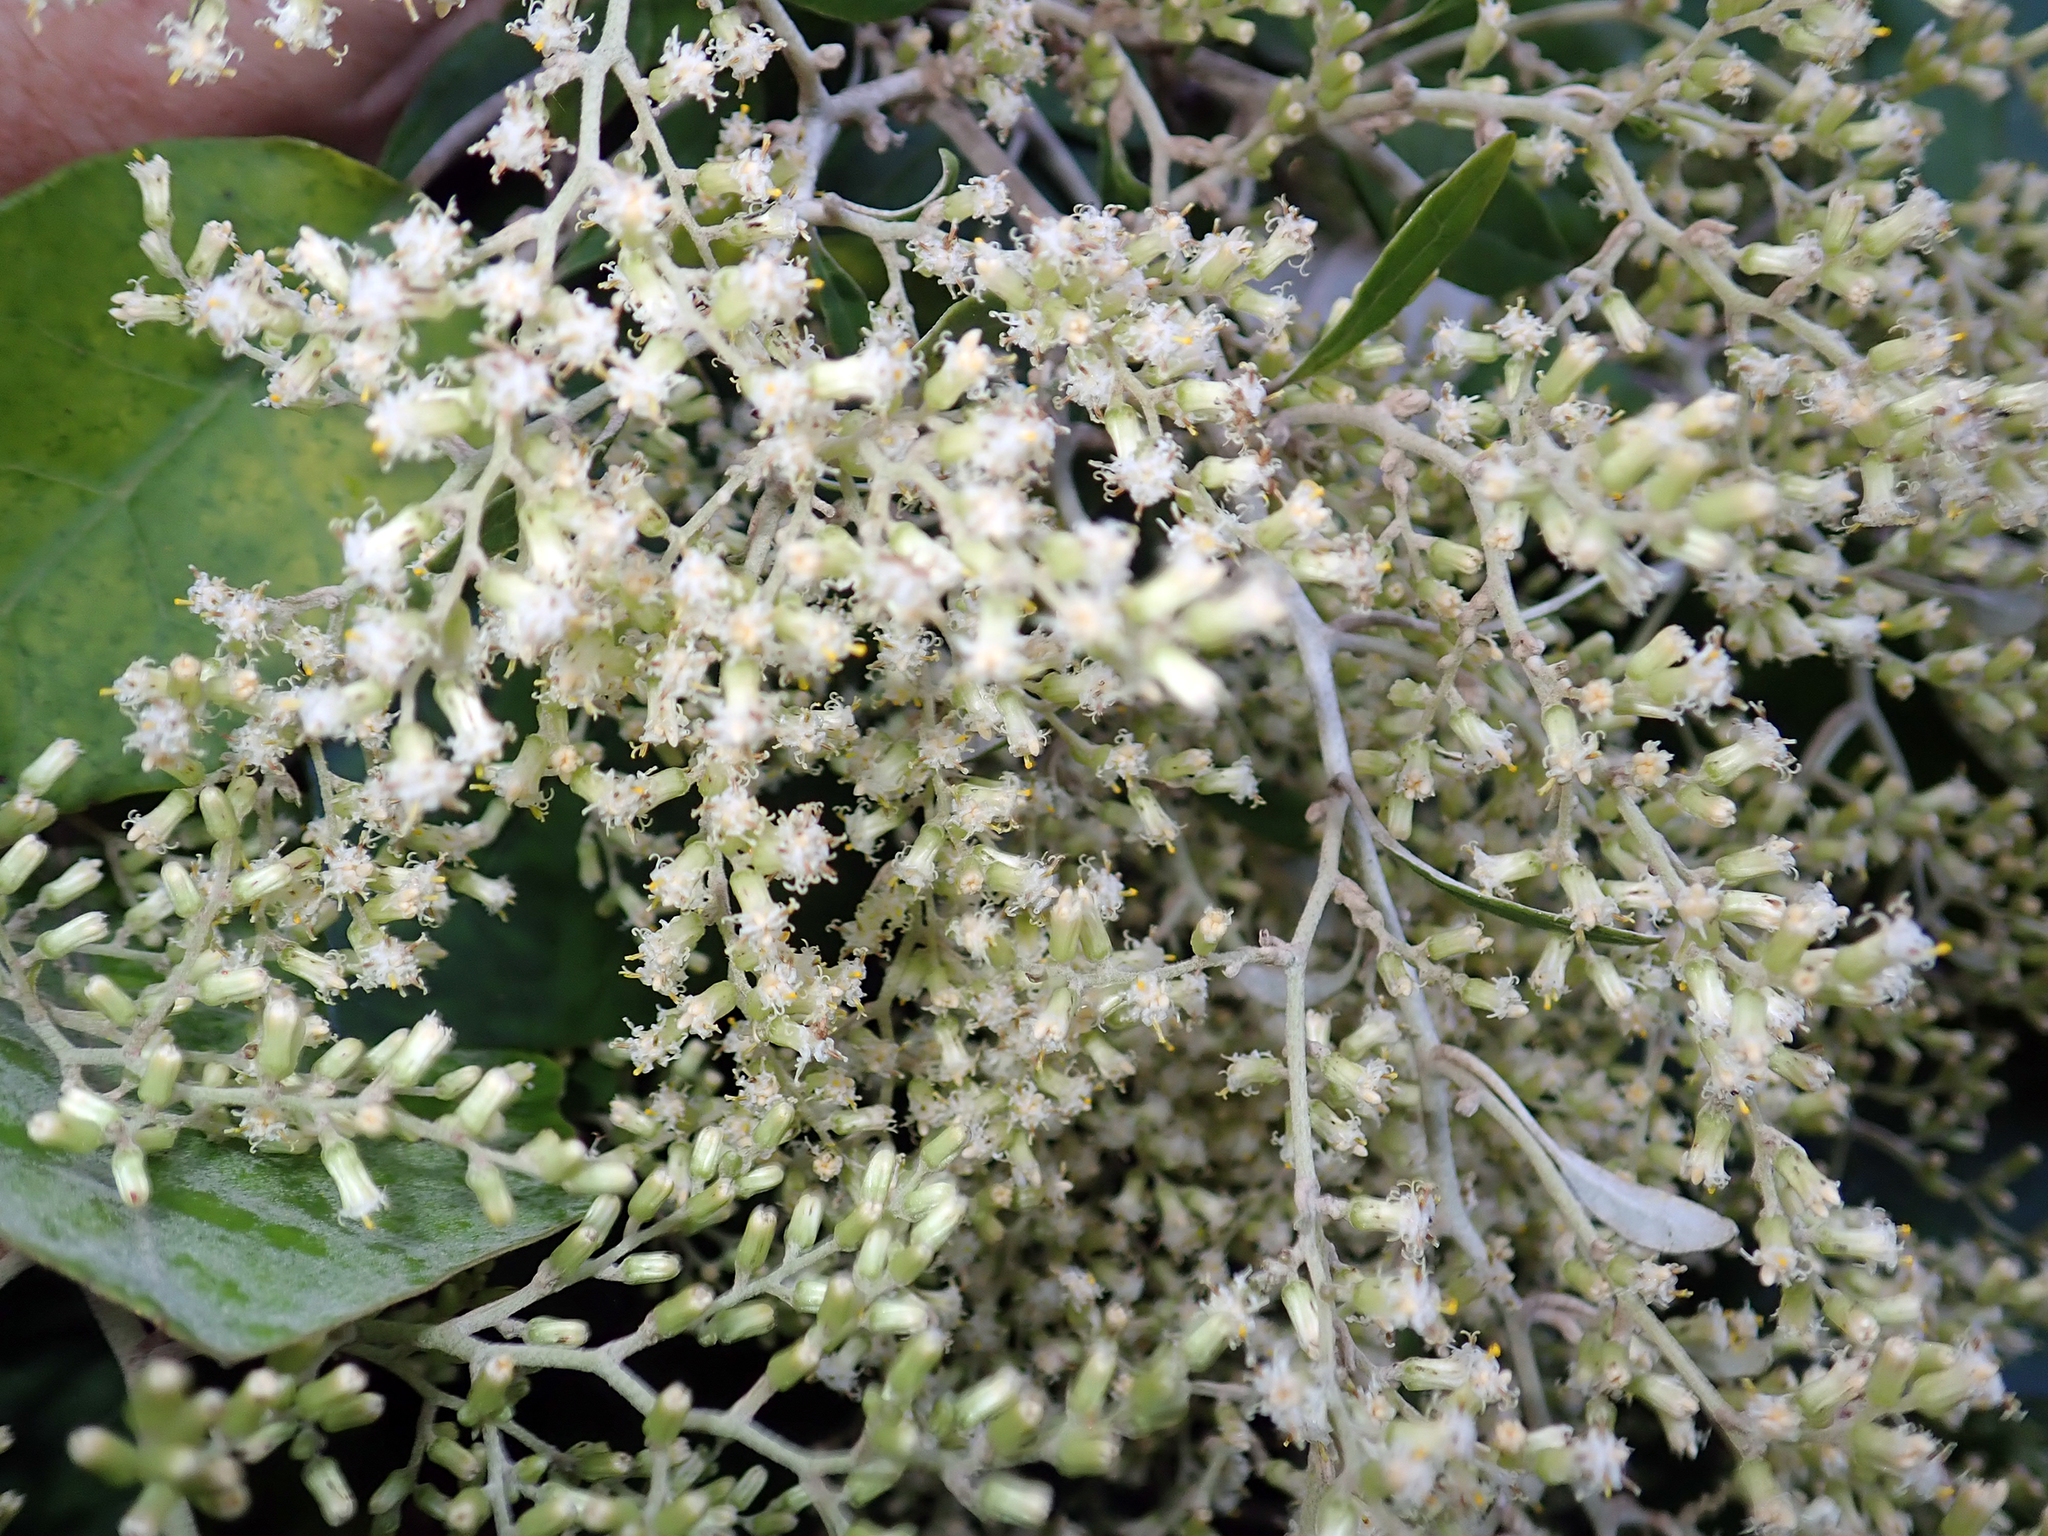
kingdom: Plantae
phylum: Tracheophyta
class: Magnoliopsida
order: Asterales
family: Asteraceae
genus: Brachyglottis
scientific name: Brachyglottis repanda
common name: Hedge ragwort
